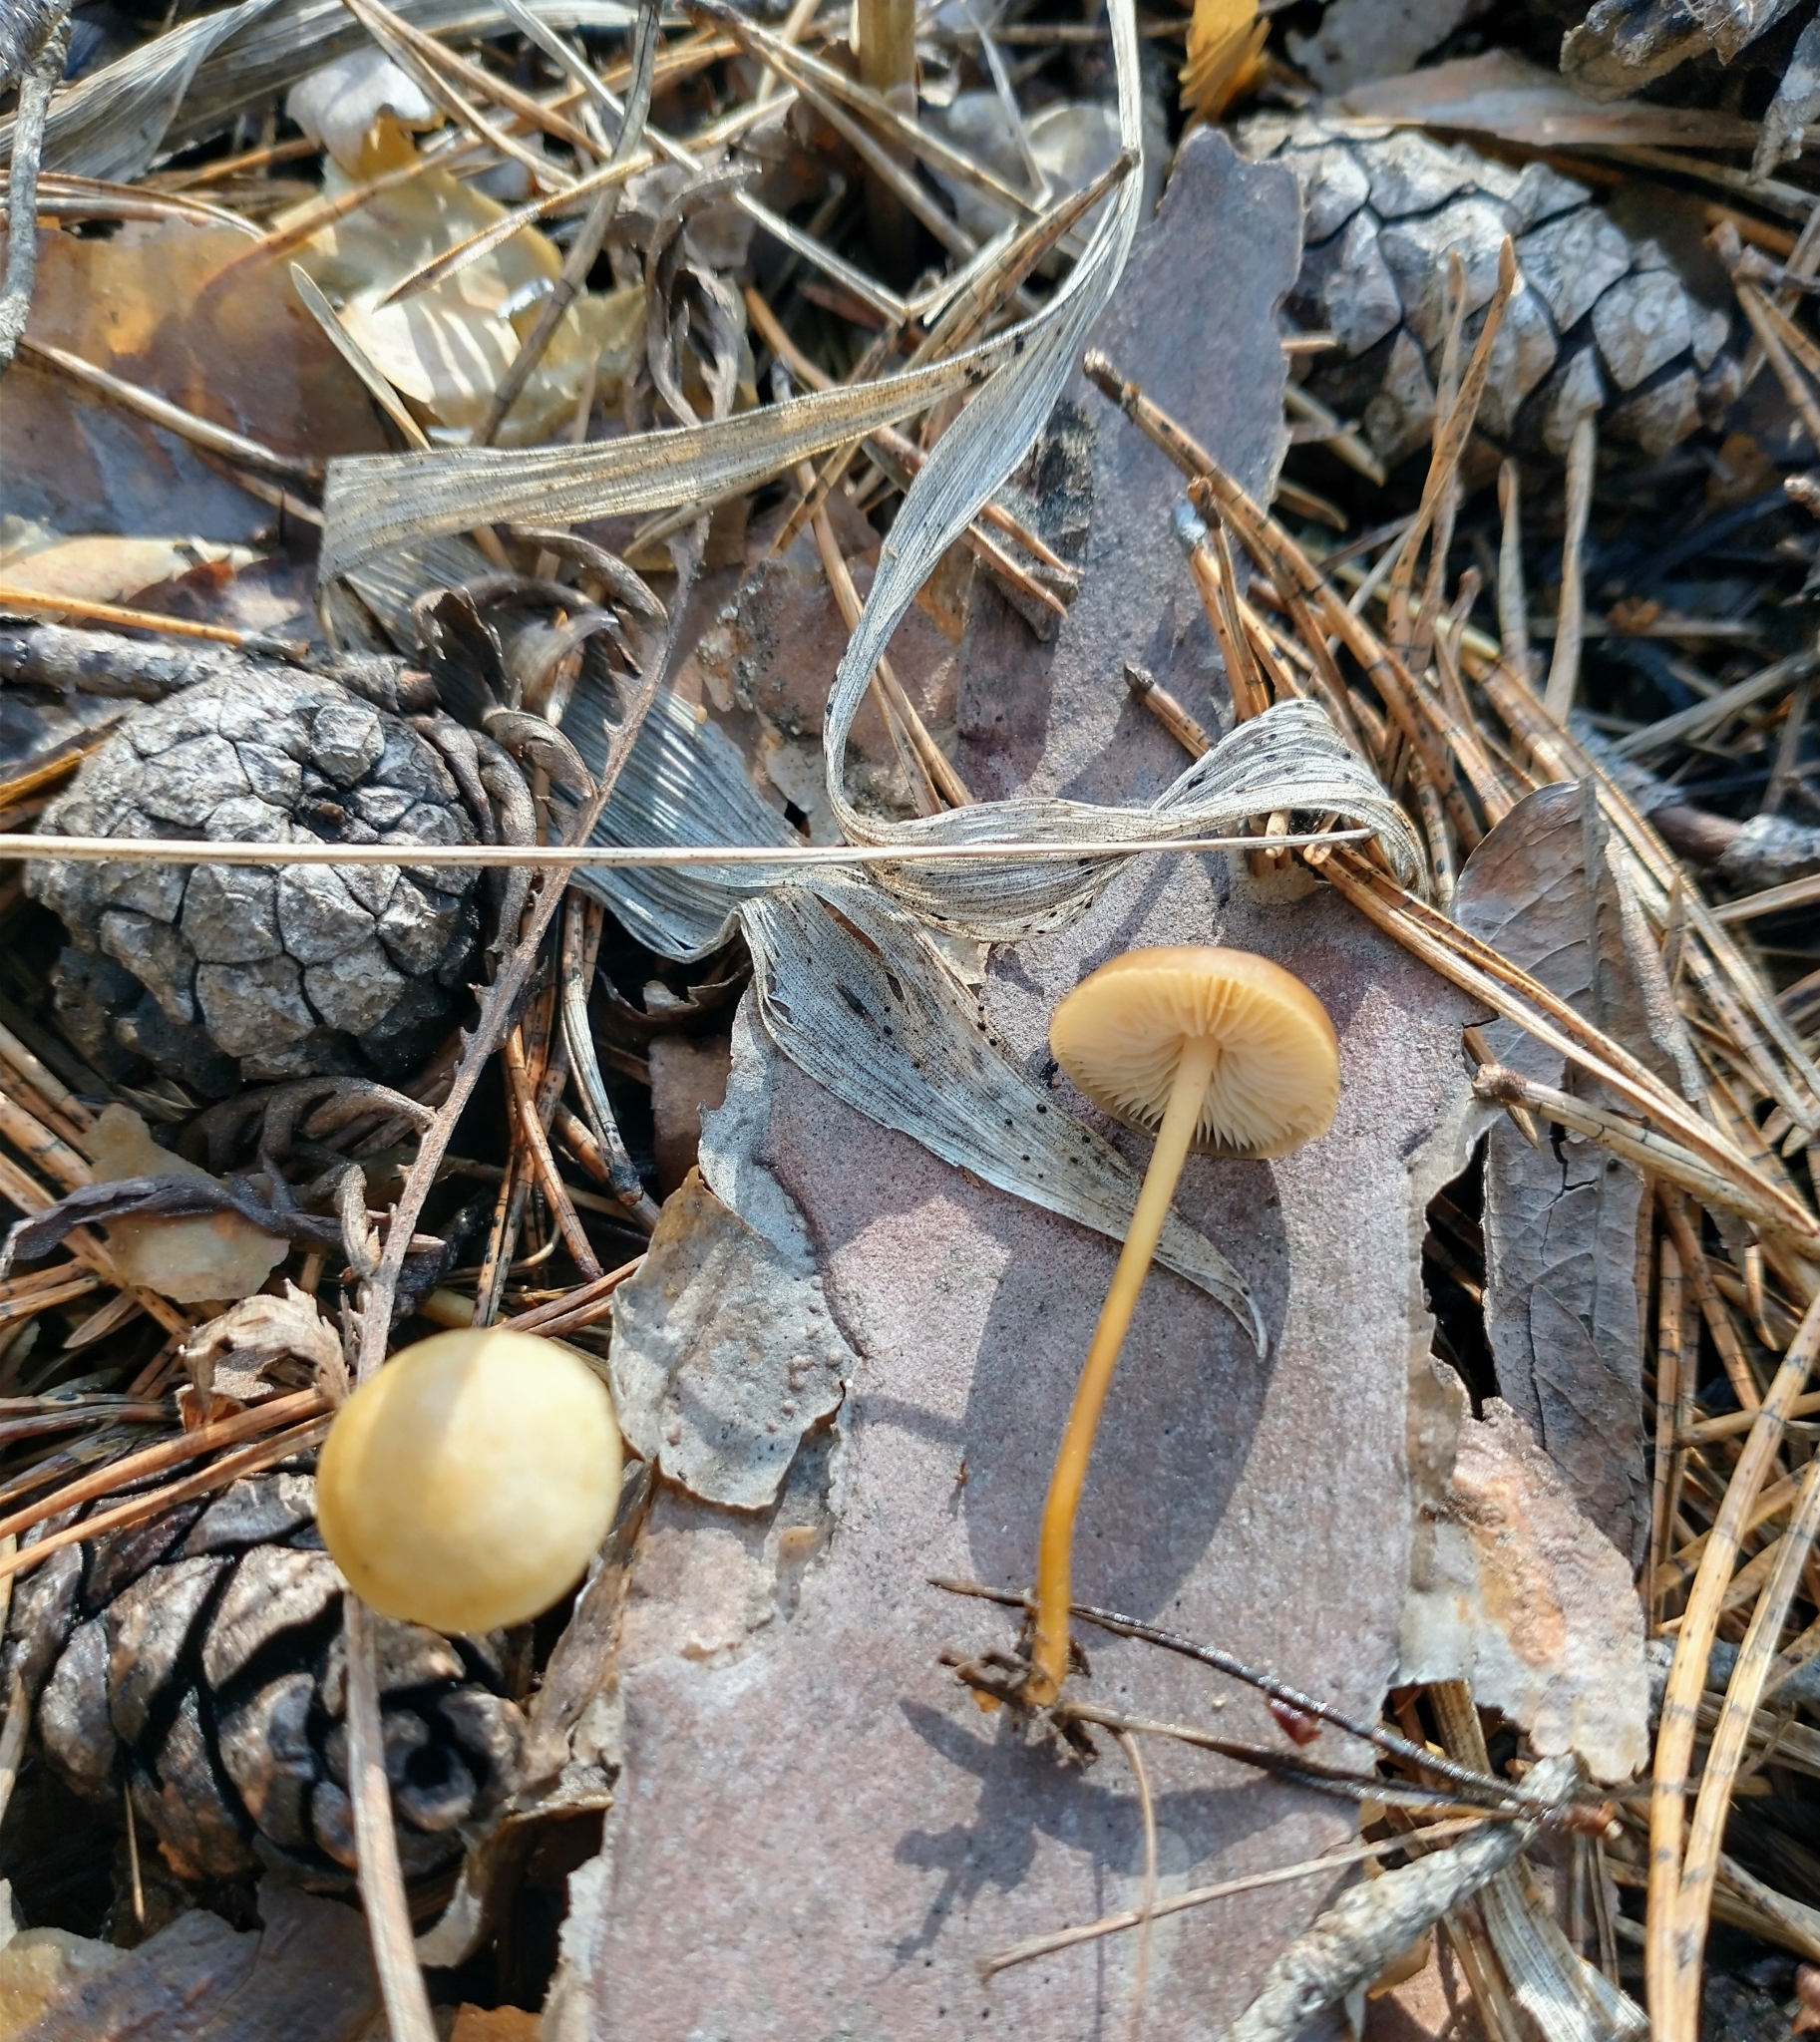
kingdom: Fungi
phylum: Basidiomycota
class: Agaricomycetes
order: Agaricales
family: Physalacriaceae
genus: Strobilurus
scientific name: Strobilurus stephanocystis
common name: Russian conecap
